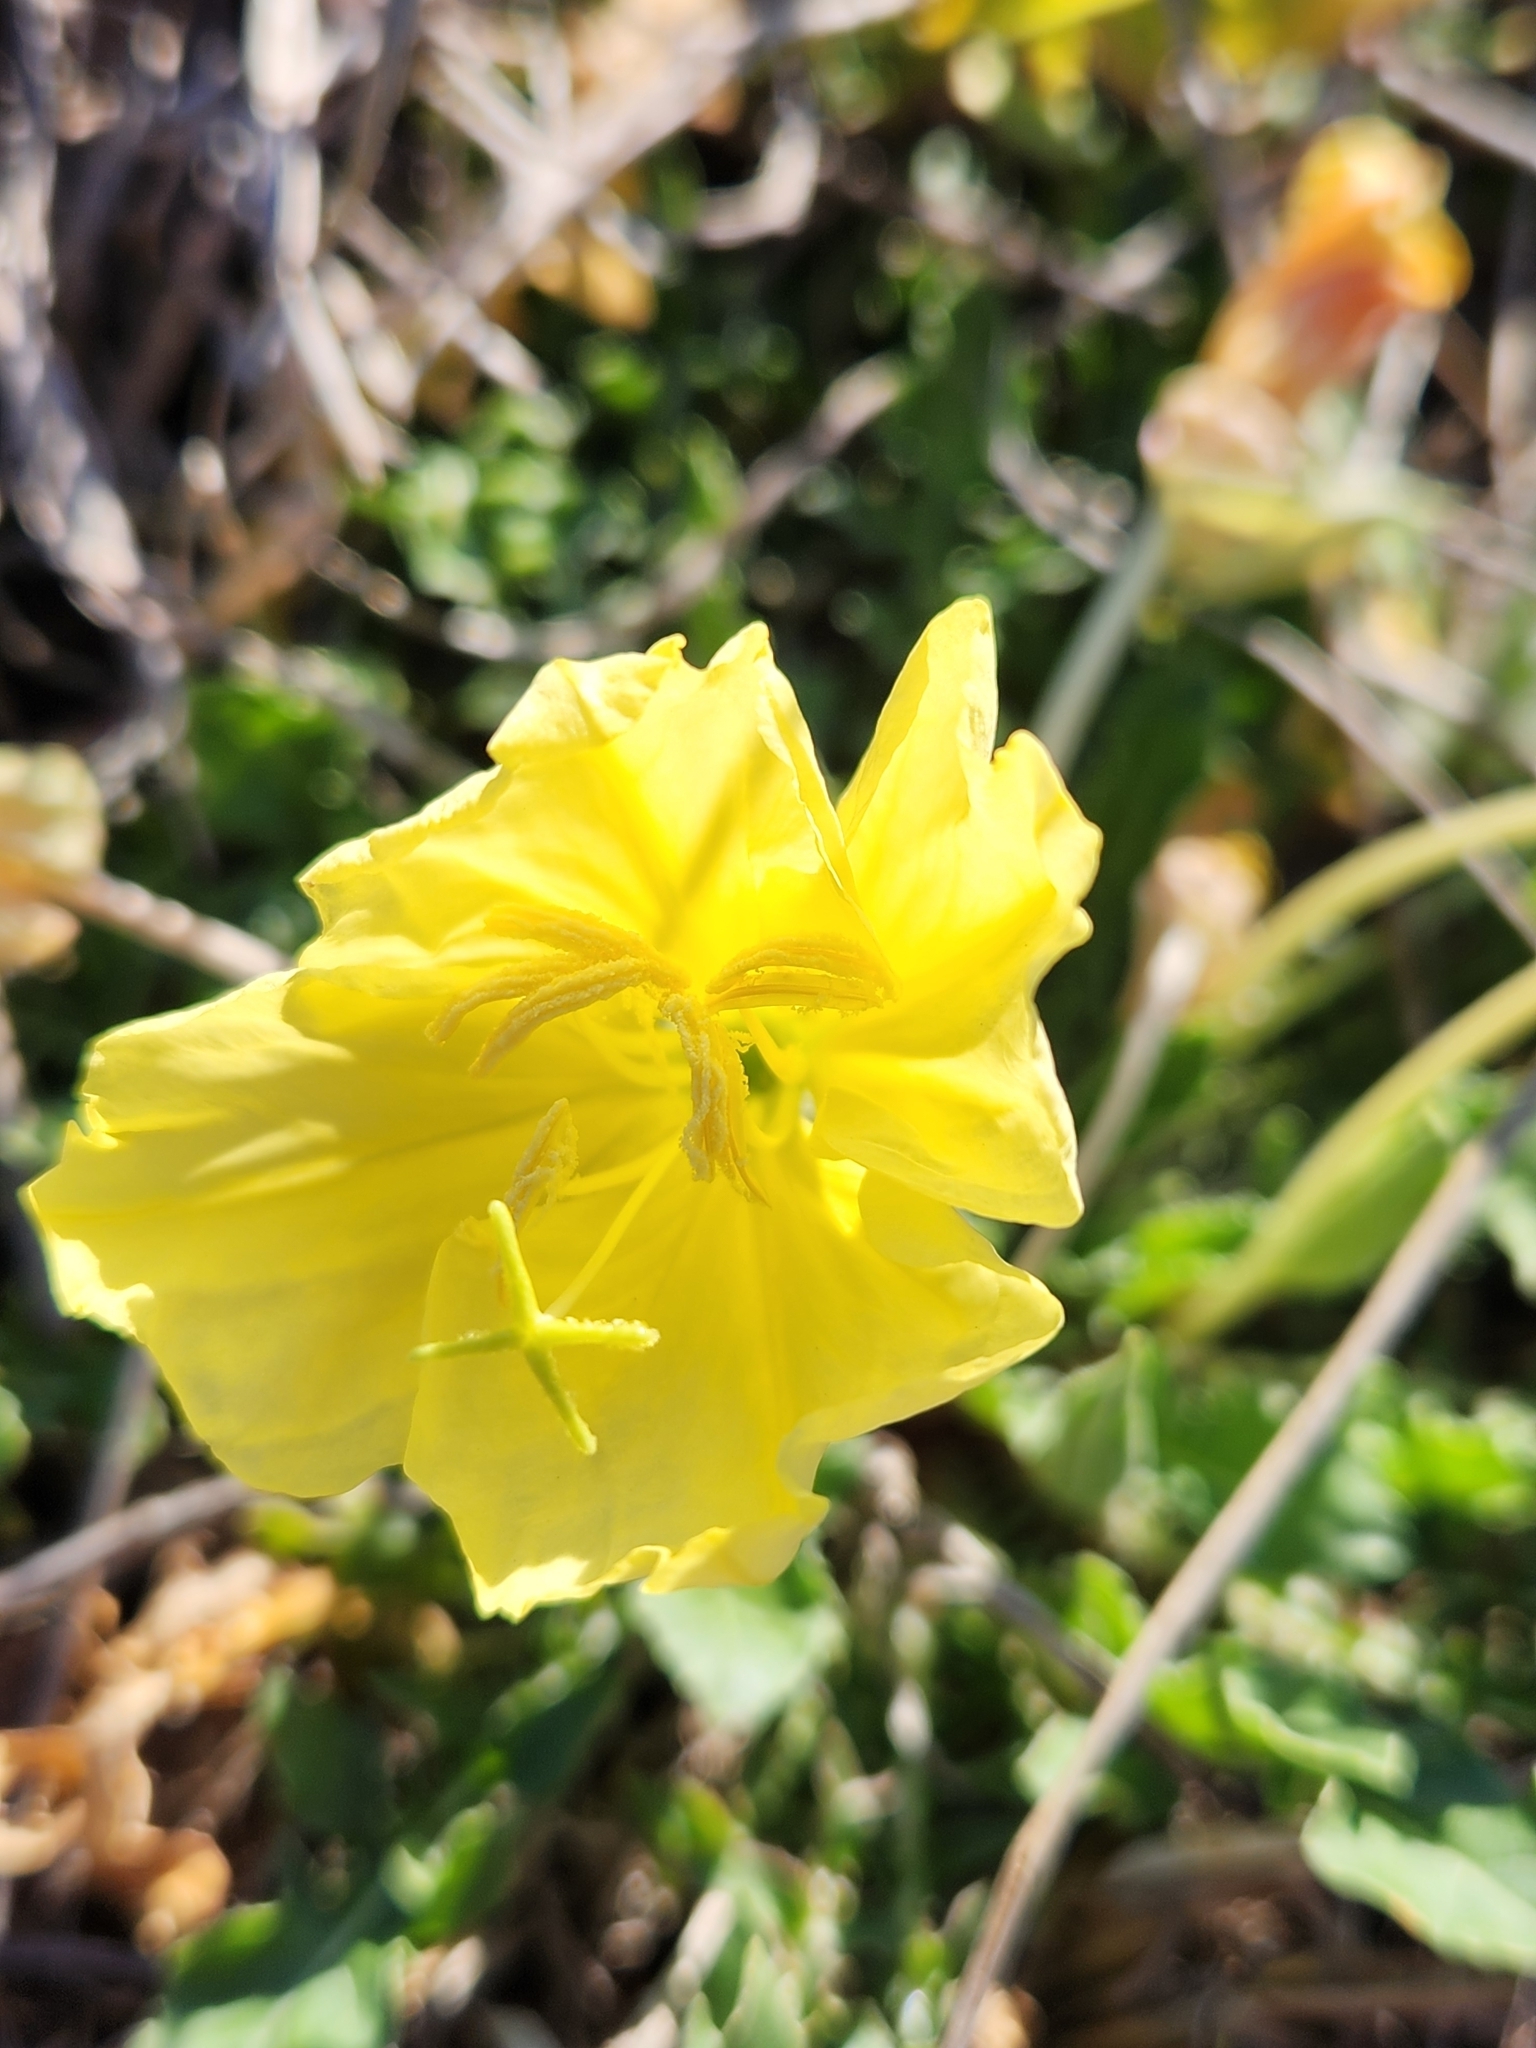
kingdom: Plantae
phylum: Tracheophyta
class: Magnoliopsida
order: Myrtales
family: Onagraceae
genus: Oenothera
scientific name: Oenothera triloba
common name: Sessile evening-primrose
